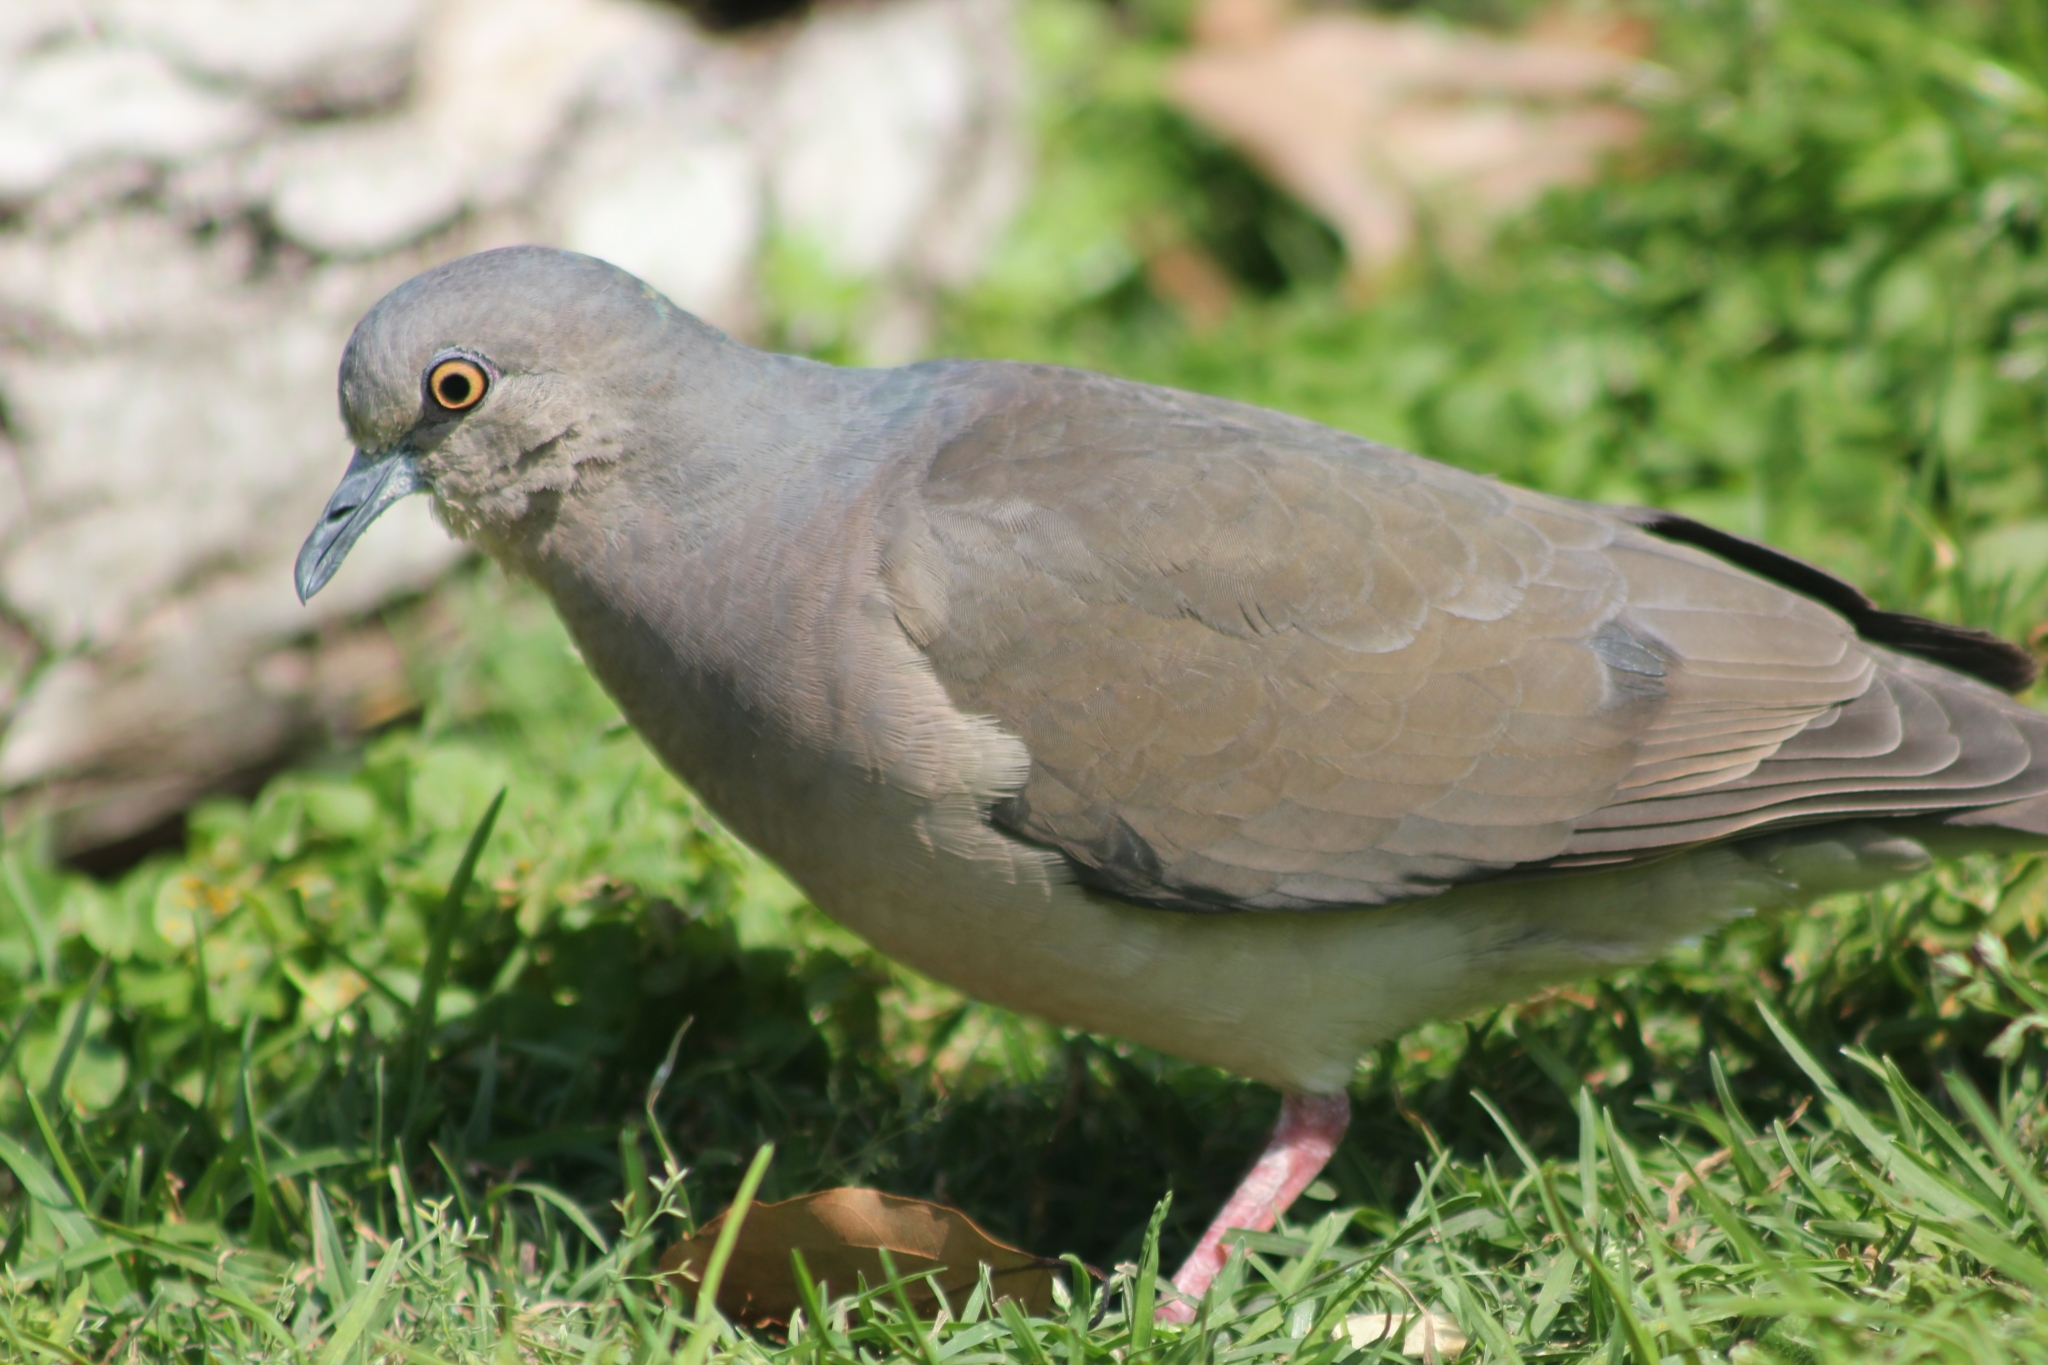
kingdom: Animalia
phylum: Chordata
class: Aves
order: Columbiformes
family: Columbidae
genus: Leptotila
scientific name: Leptotila verreauxi
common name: White-tipped dove
